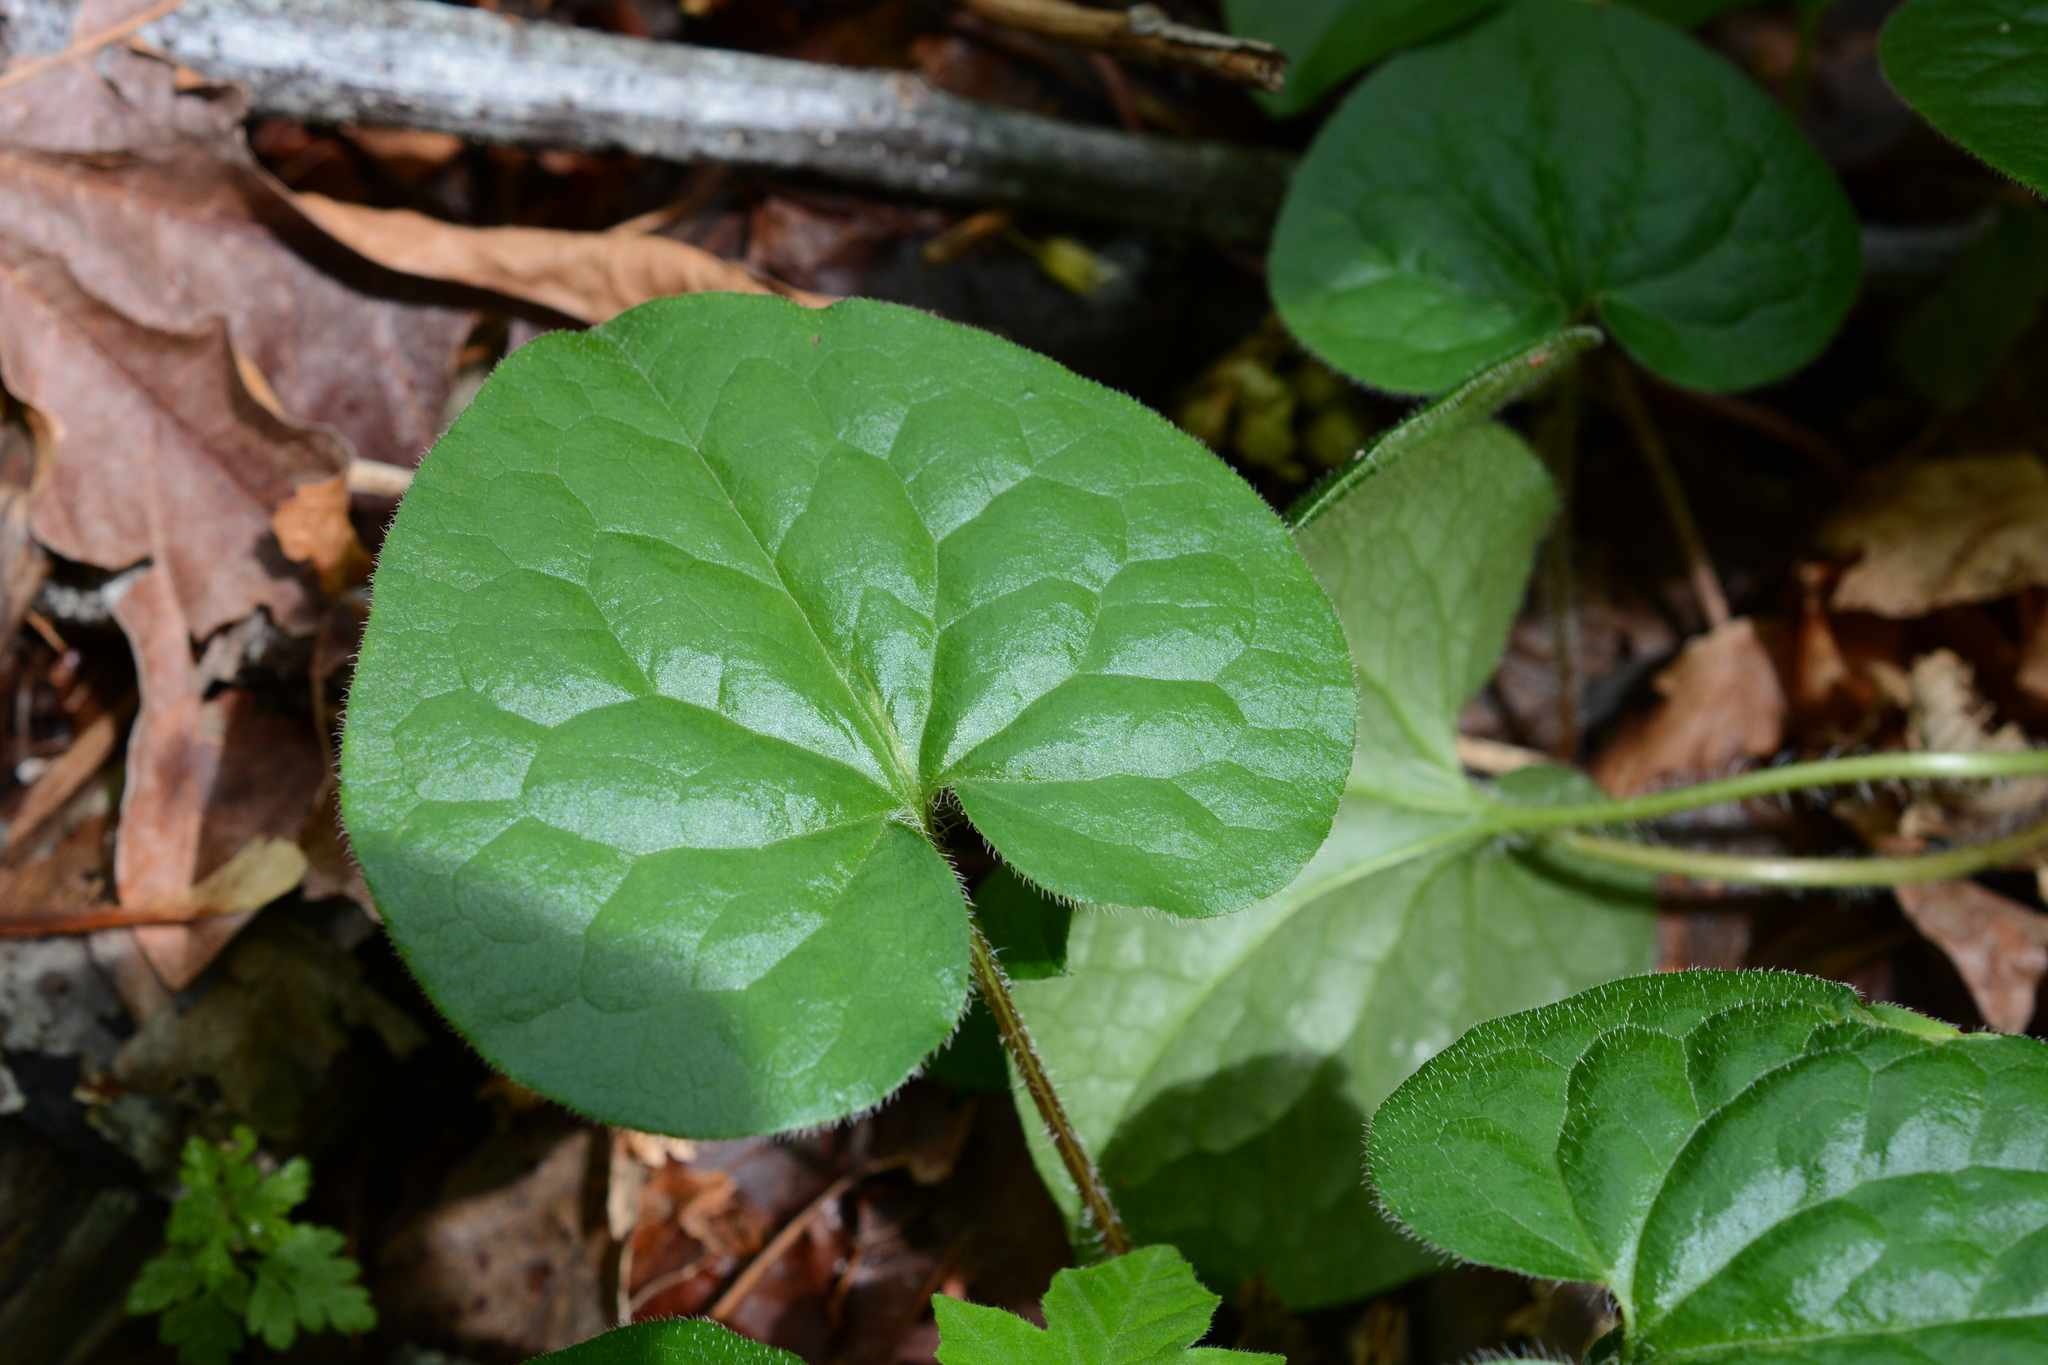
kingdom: Plantae
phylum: Tracheophyta
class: Magnoliopsida
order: Piperales
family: Aristolochiaceae
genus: Asarum
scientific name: Asarum caudatum
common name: Wild ginger
